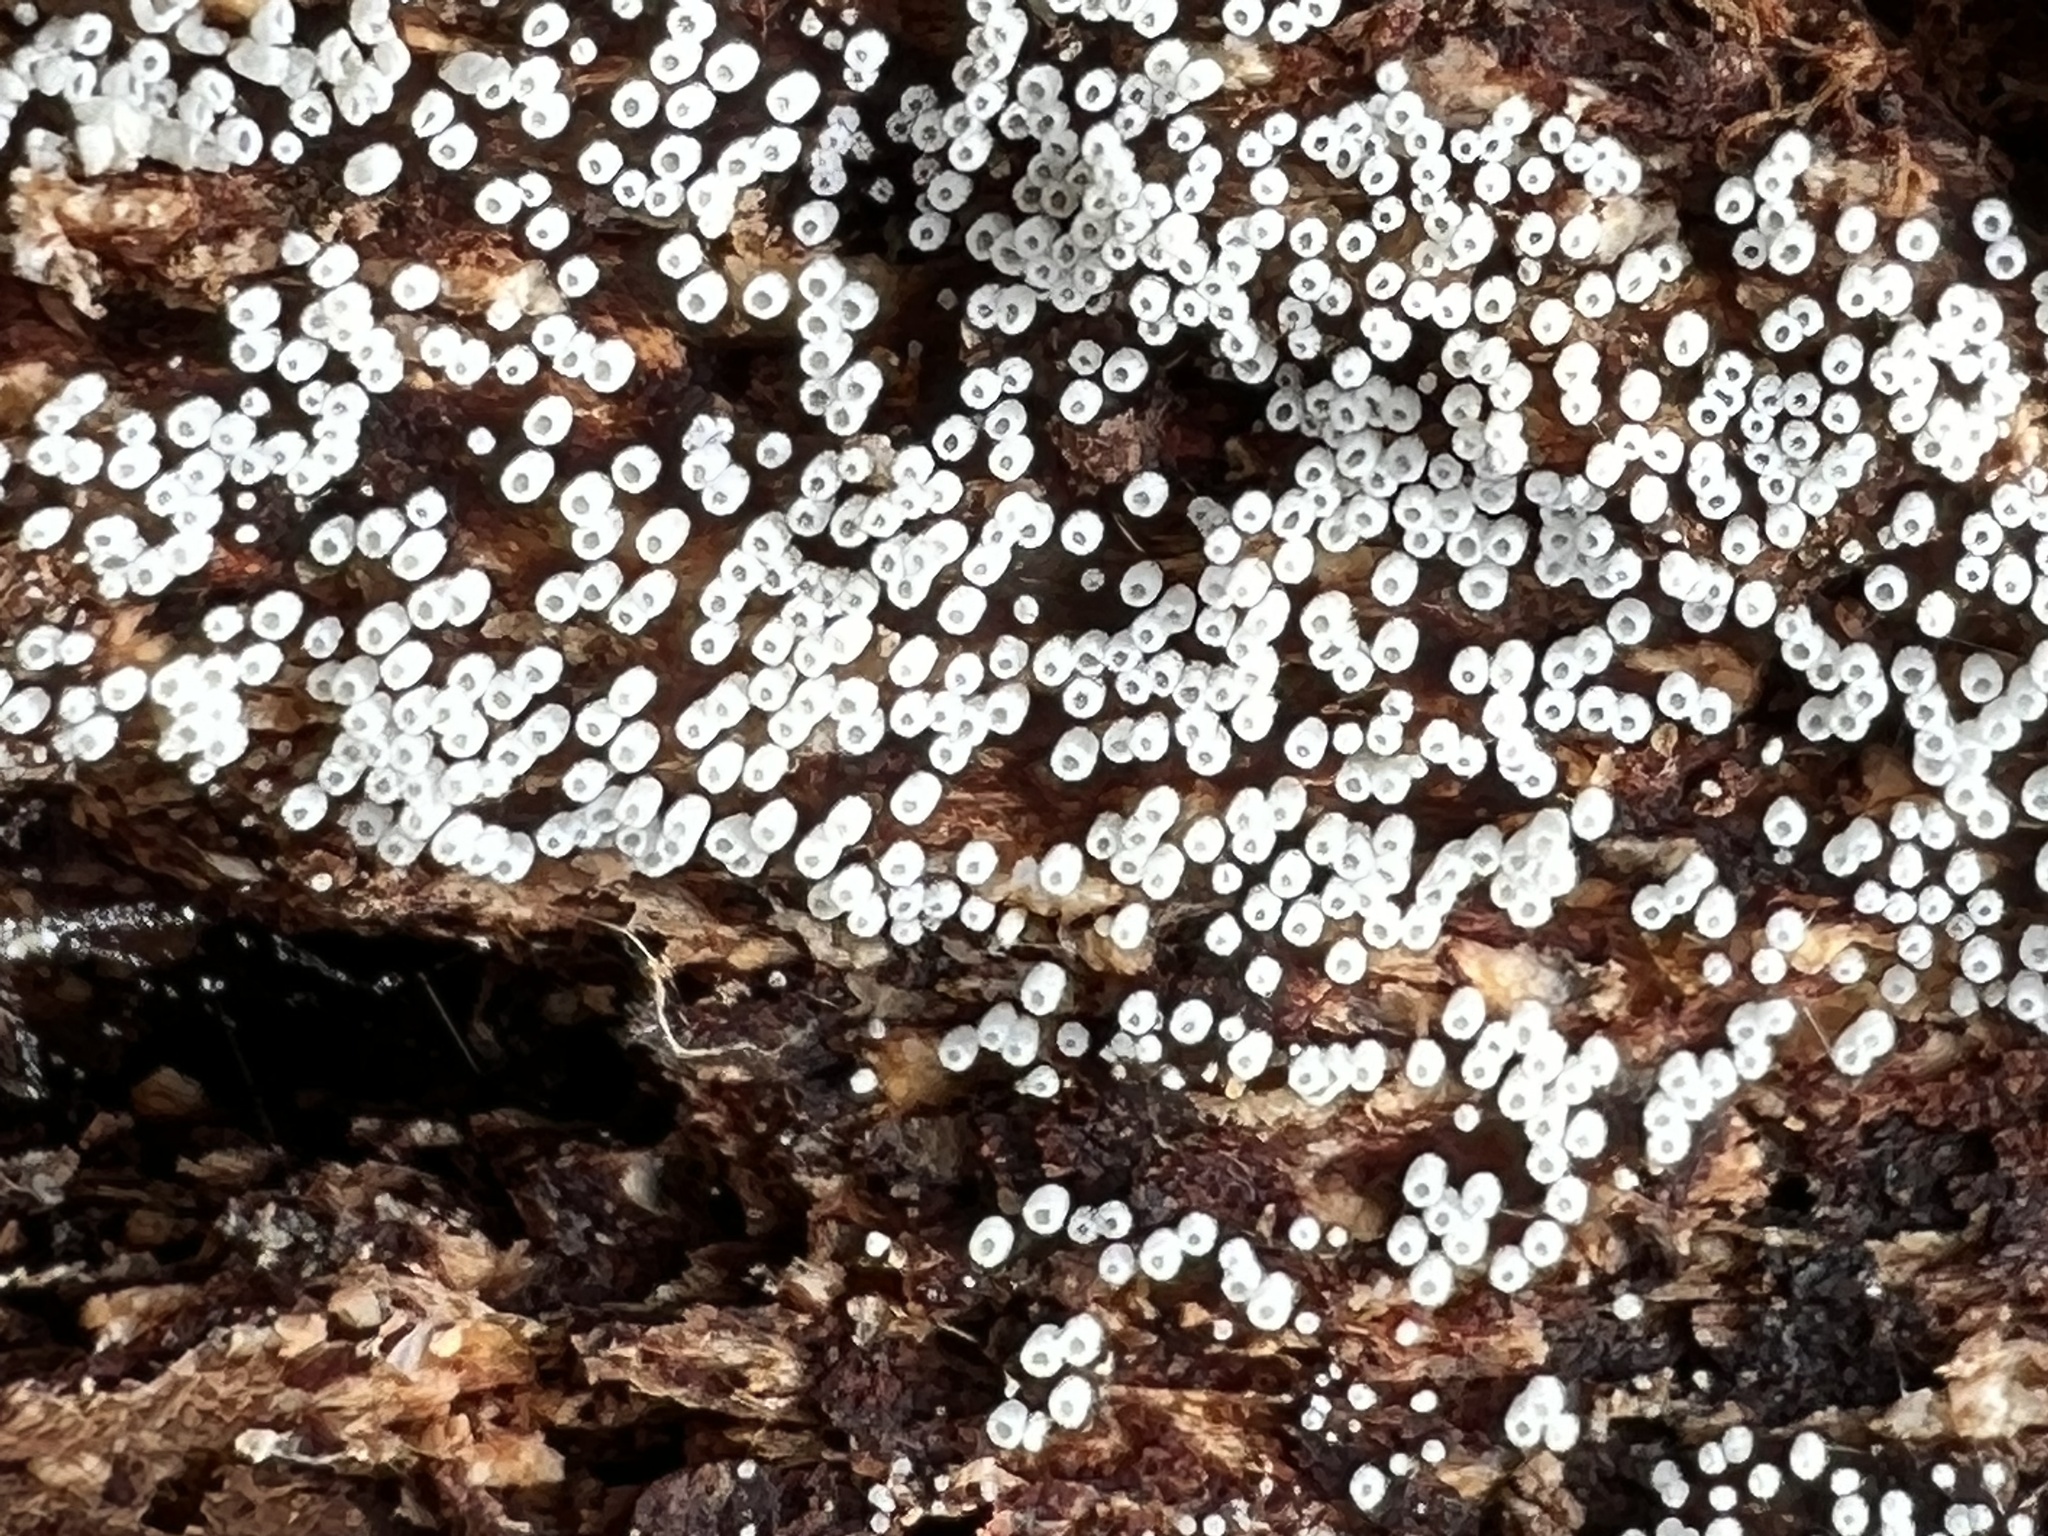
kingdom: Fungi
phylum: Basidiomycota
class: Agaricomycetes
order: Agaricales
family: Marasmiaceae
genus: Henningsomyces
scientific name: Henningsomyces candidus
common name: White tubelet
